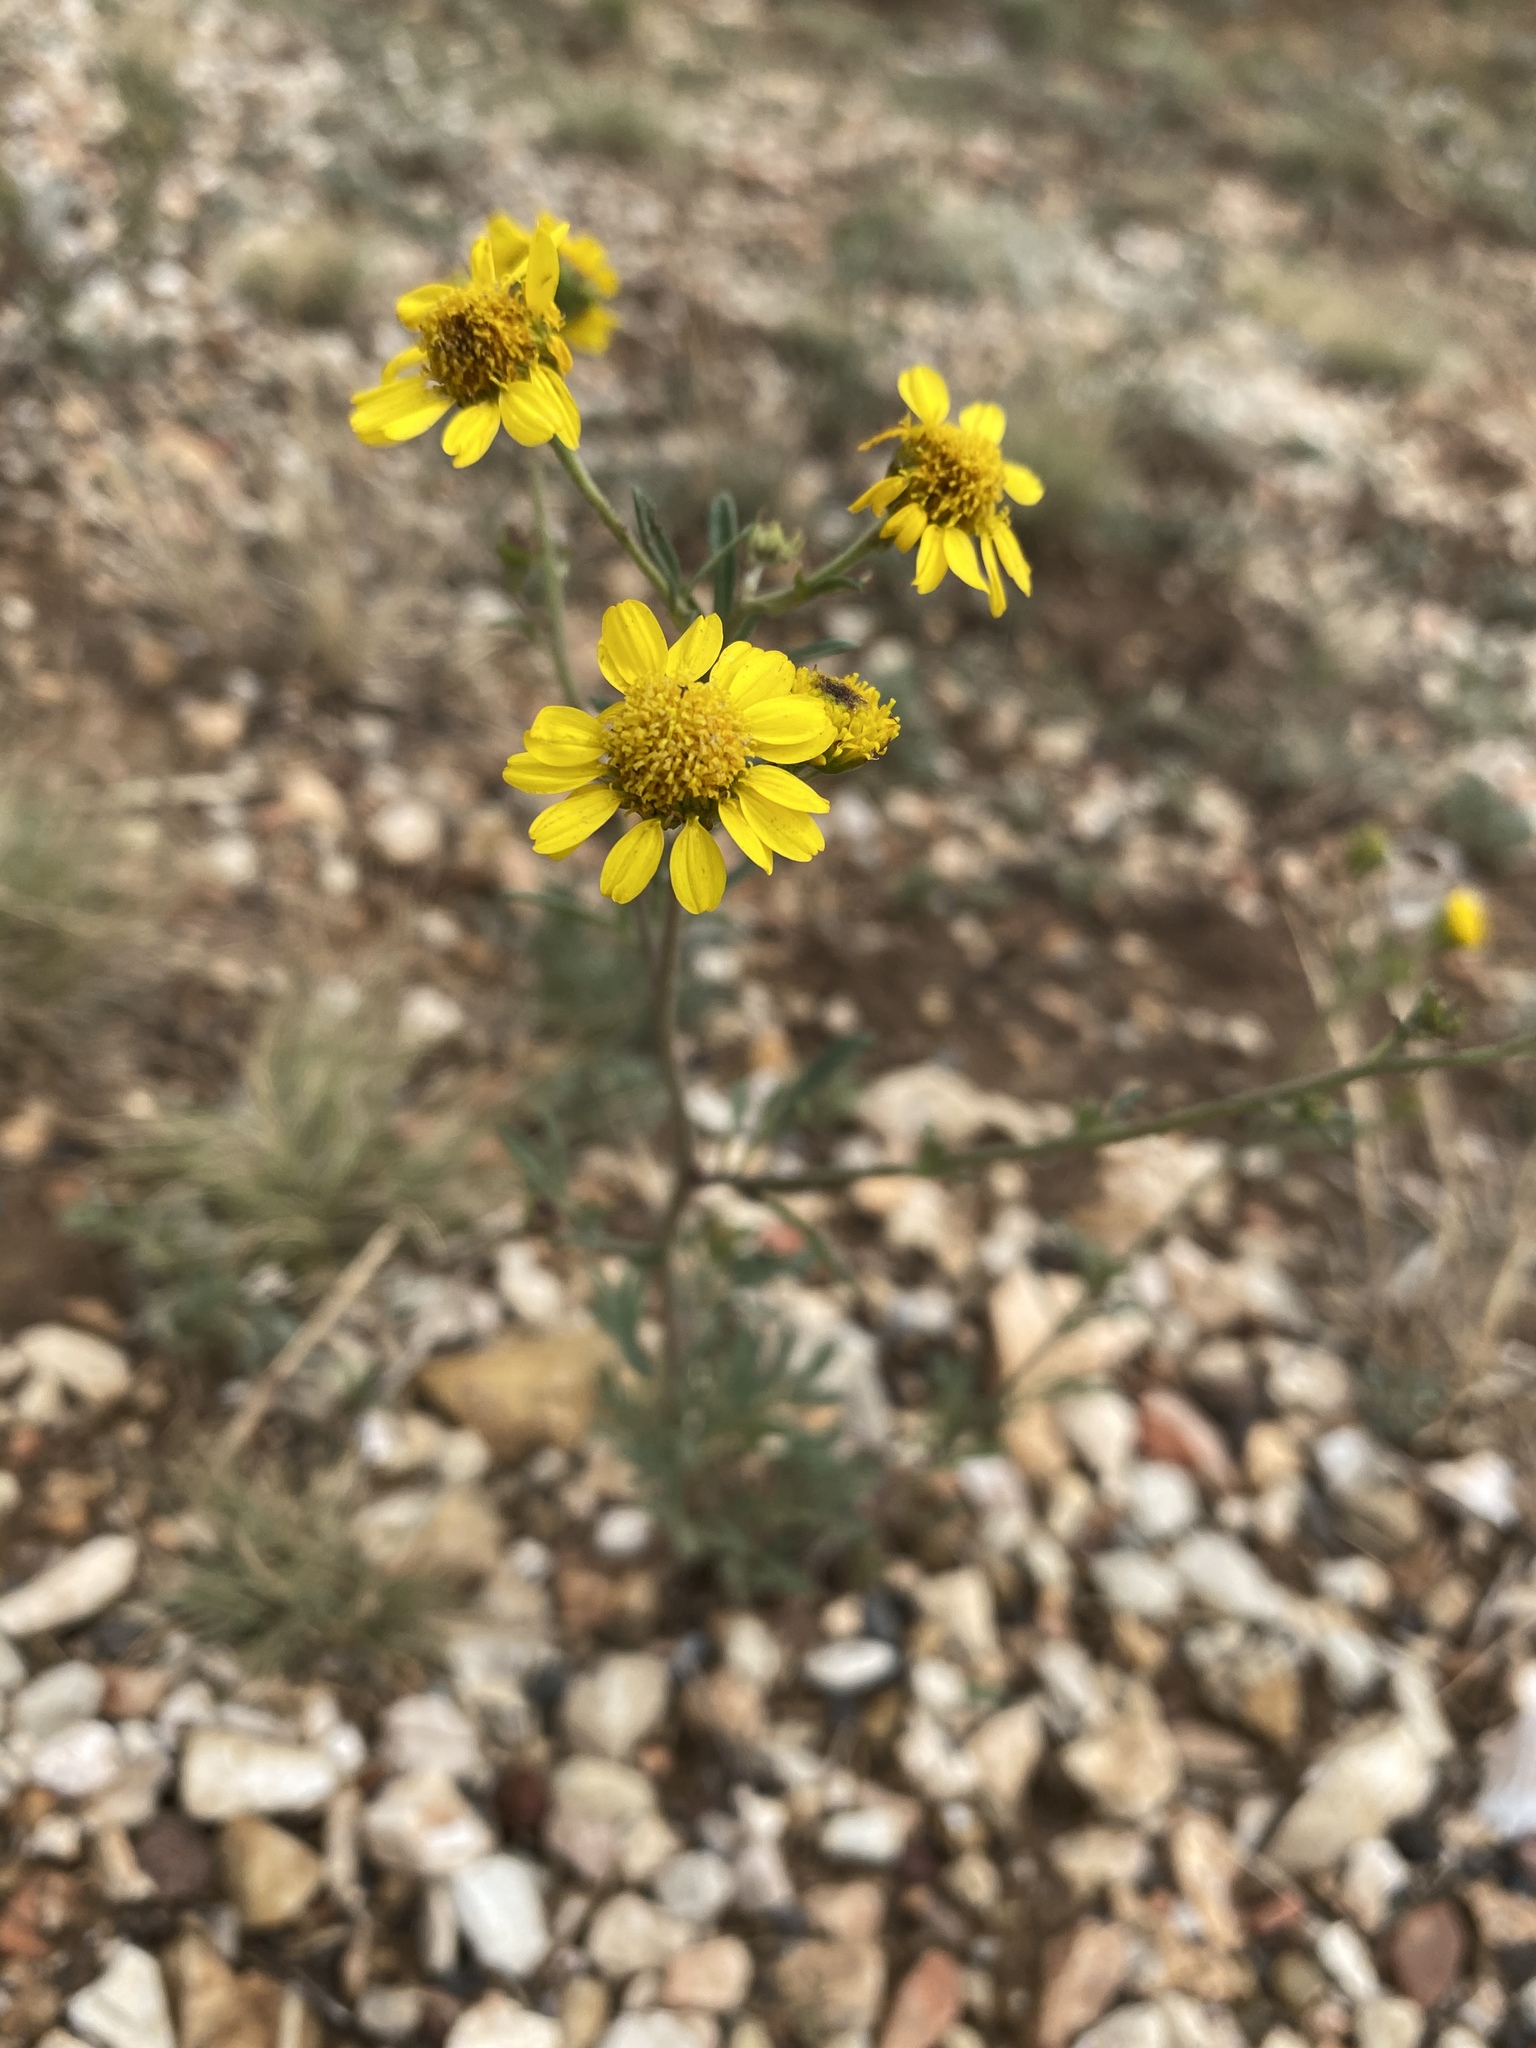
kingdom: Plantae
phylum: Tracheophyta
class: Magnoliopsida
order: Asterales
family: Asteraceae
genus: Hymenothrix
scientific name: Hymenothrix dissecta
